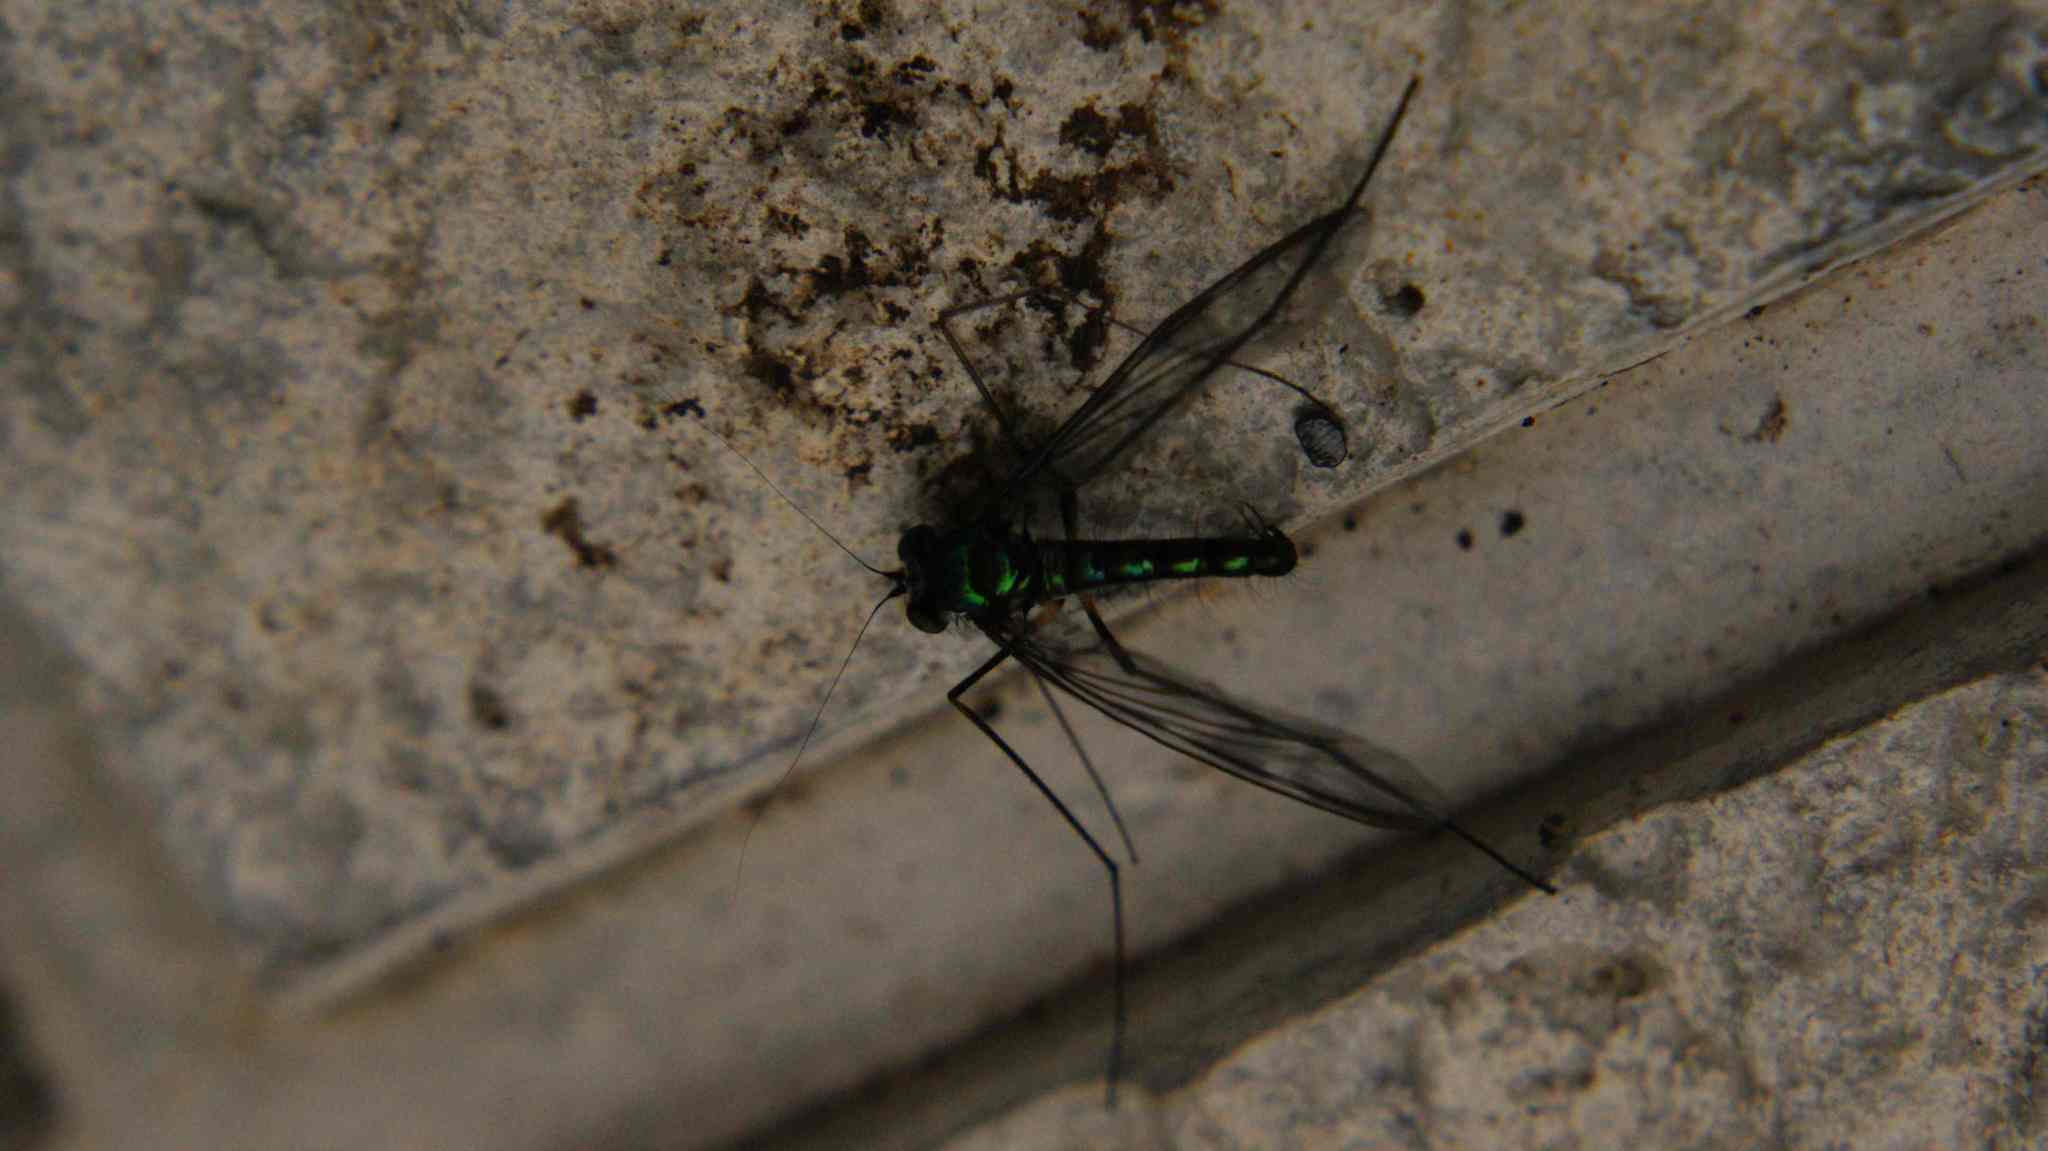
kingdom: Animalia
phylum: Arthropoda
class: Insecta
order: Diptera
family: Dolichopodidae
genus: Heteropsilopus
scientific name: Heteropsilopus triligatus
